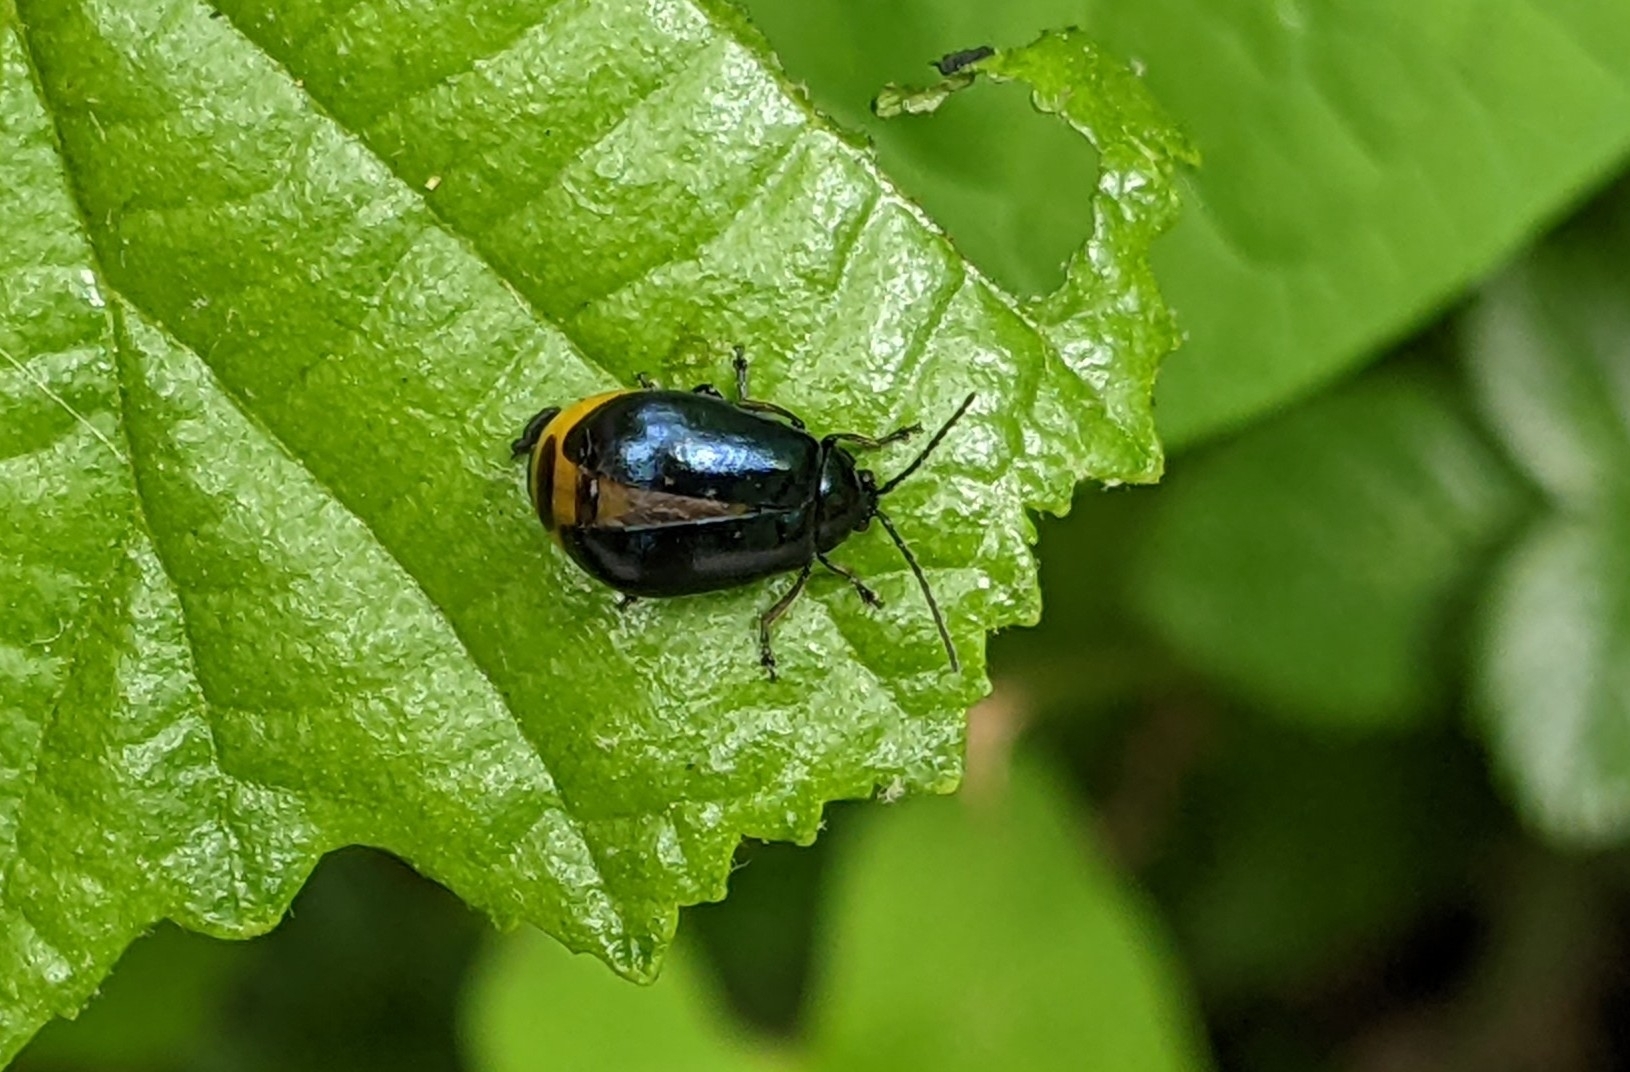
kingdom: Animalia
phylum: Arthropoda
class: Insecta
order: Coleoptera
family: Chrysomelidae
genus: Agelastica
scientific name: Agelastica alni
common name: Alder leaf beetle
